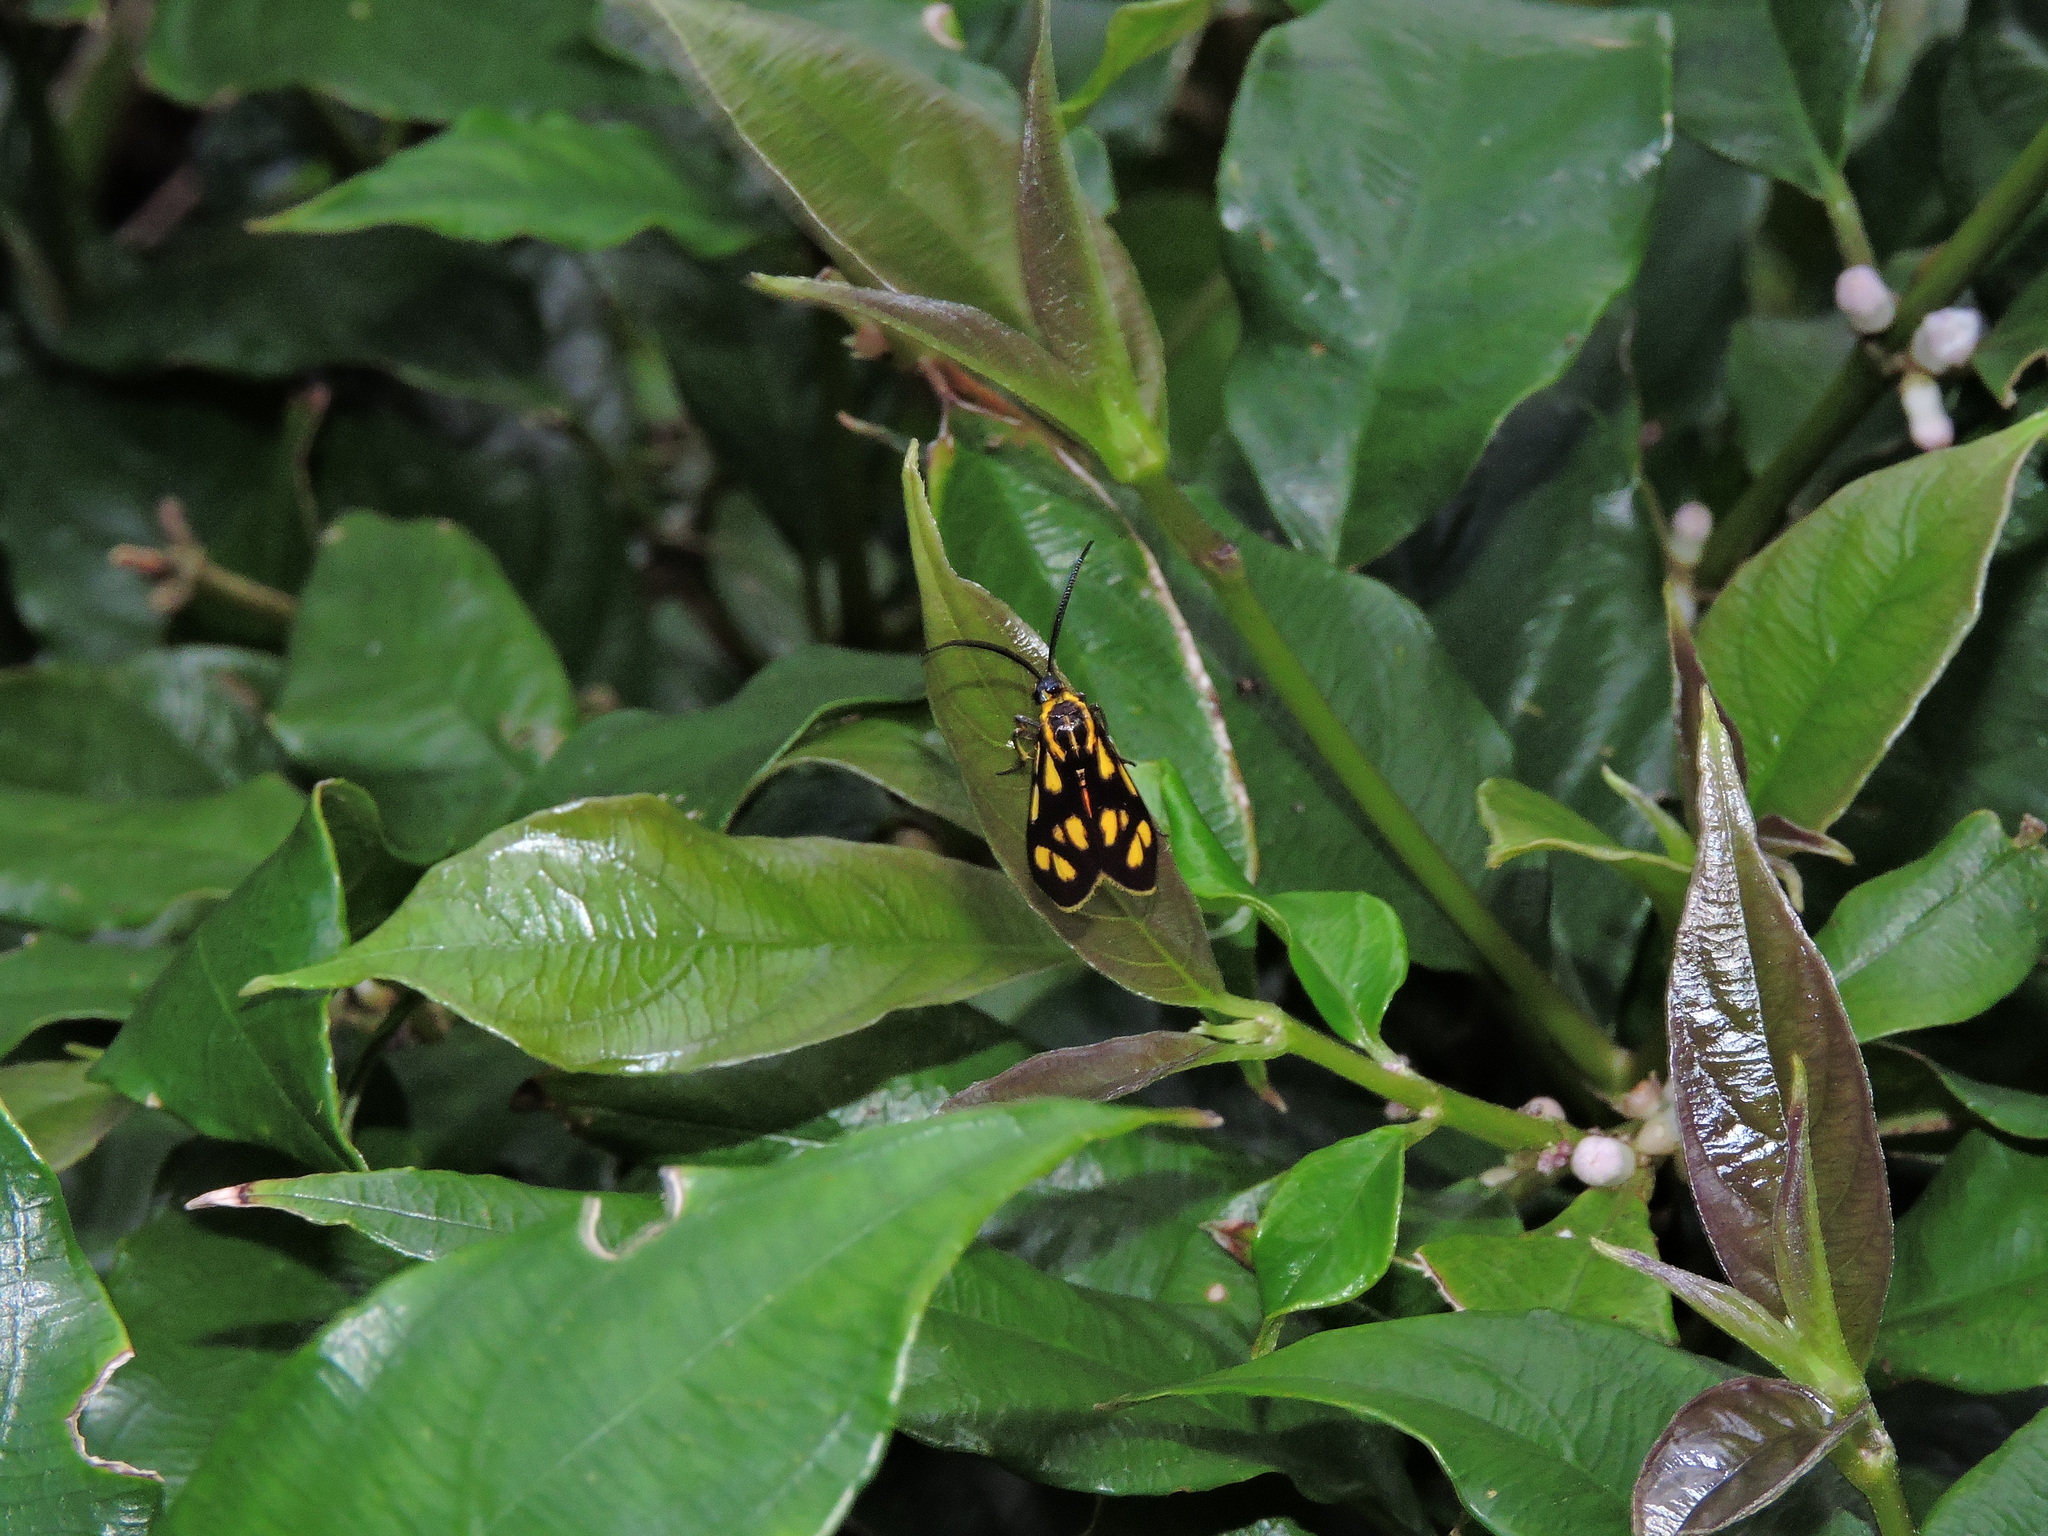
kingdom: Animalia
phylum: Arthropoda
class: Insecta
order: Lepidoptera
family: Zygaenidae
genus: Artona
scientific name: Artona walkeri
